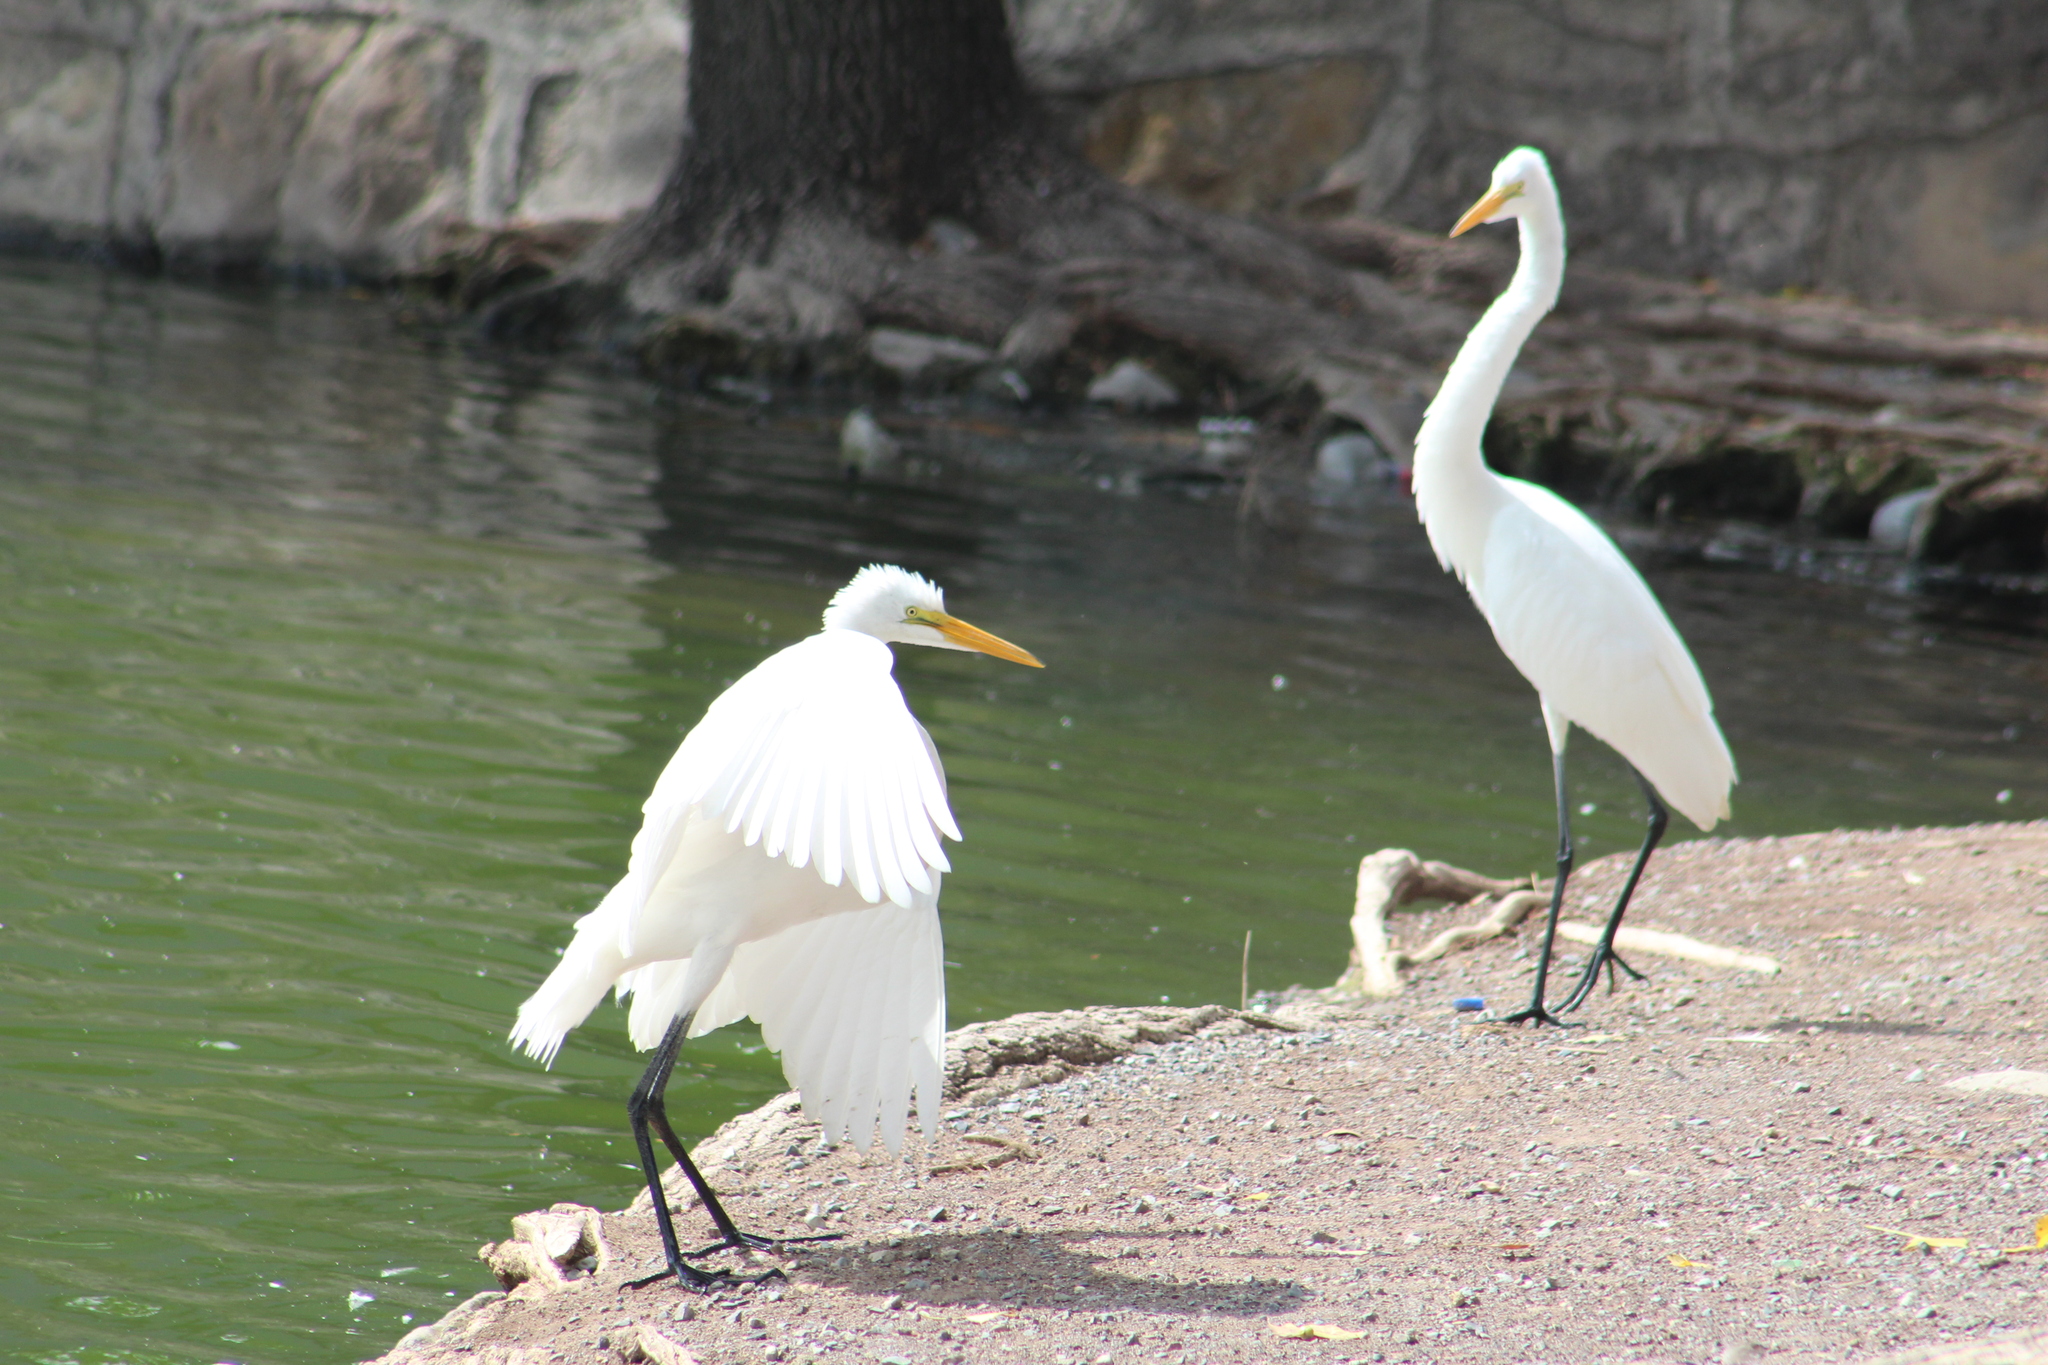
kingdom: Animalia
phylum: Chordata
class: Aves
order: Pelecaniformes
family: Ardeidae
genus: Ardea
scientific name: Ardea alba
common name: Great egret
